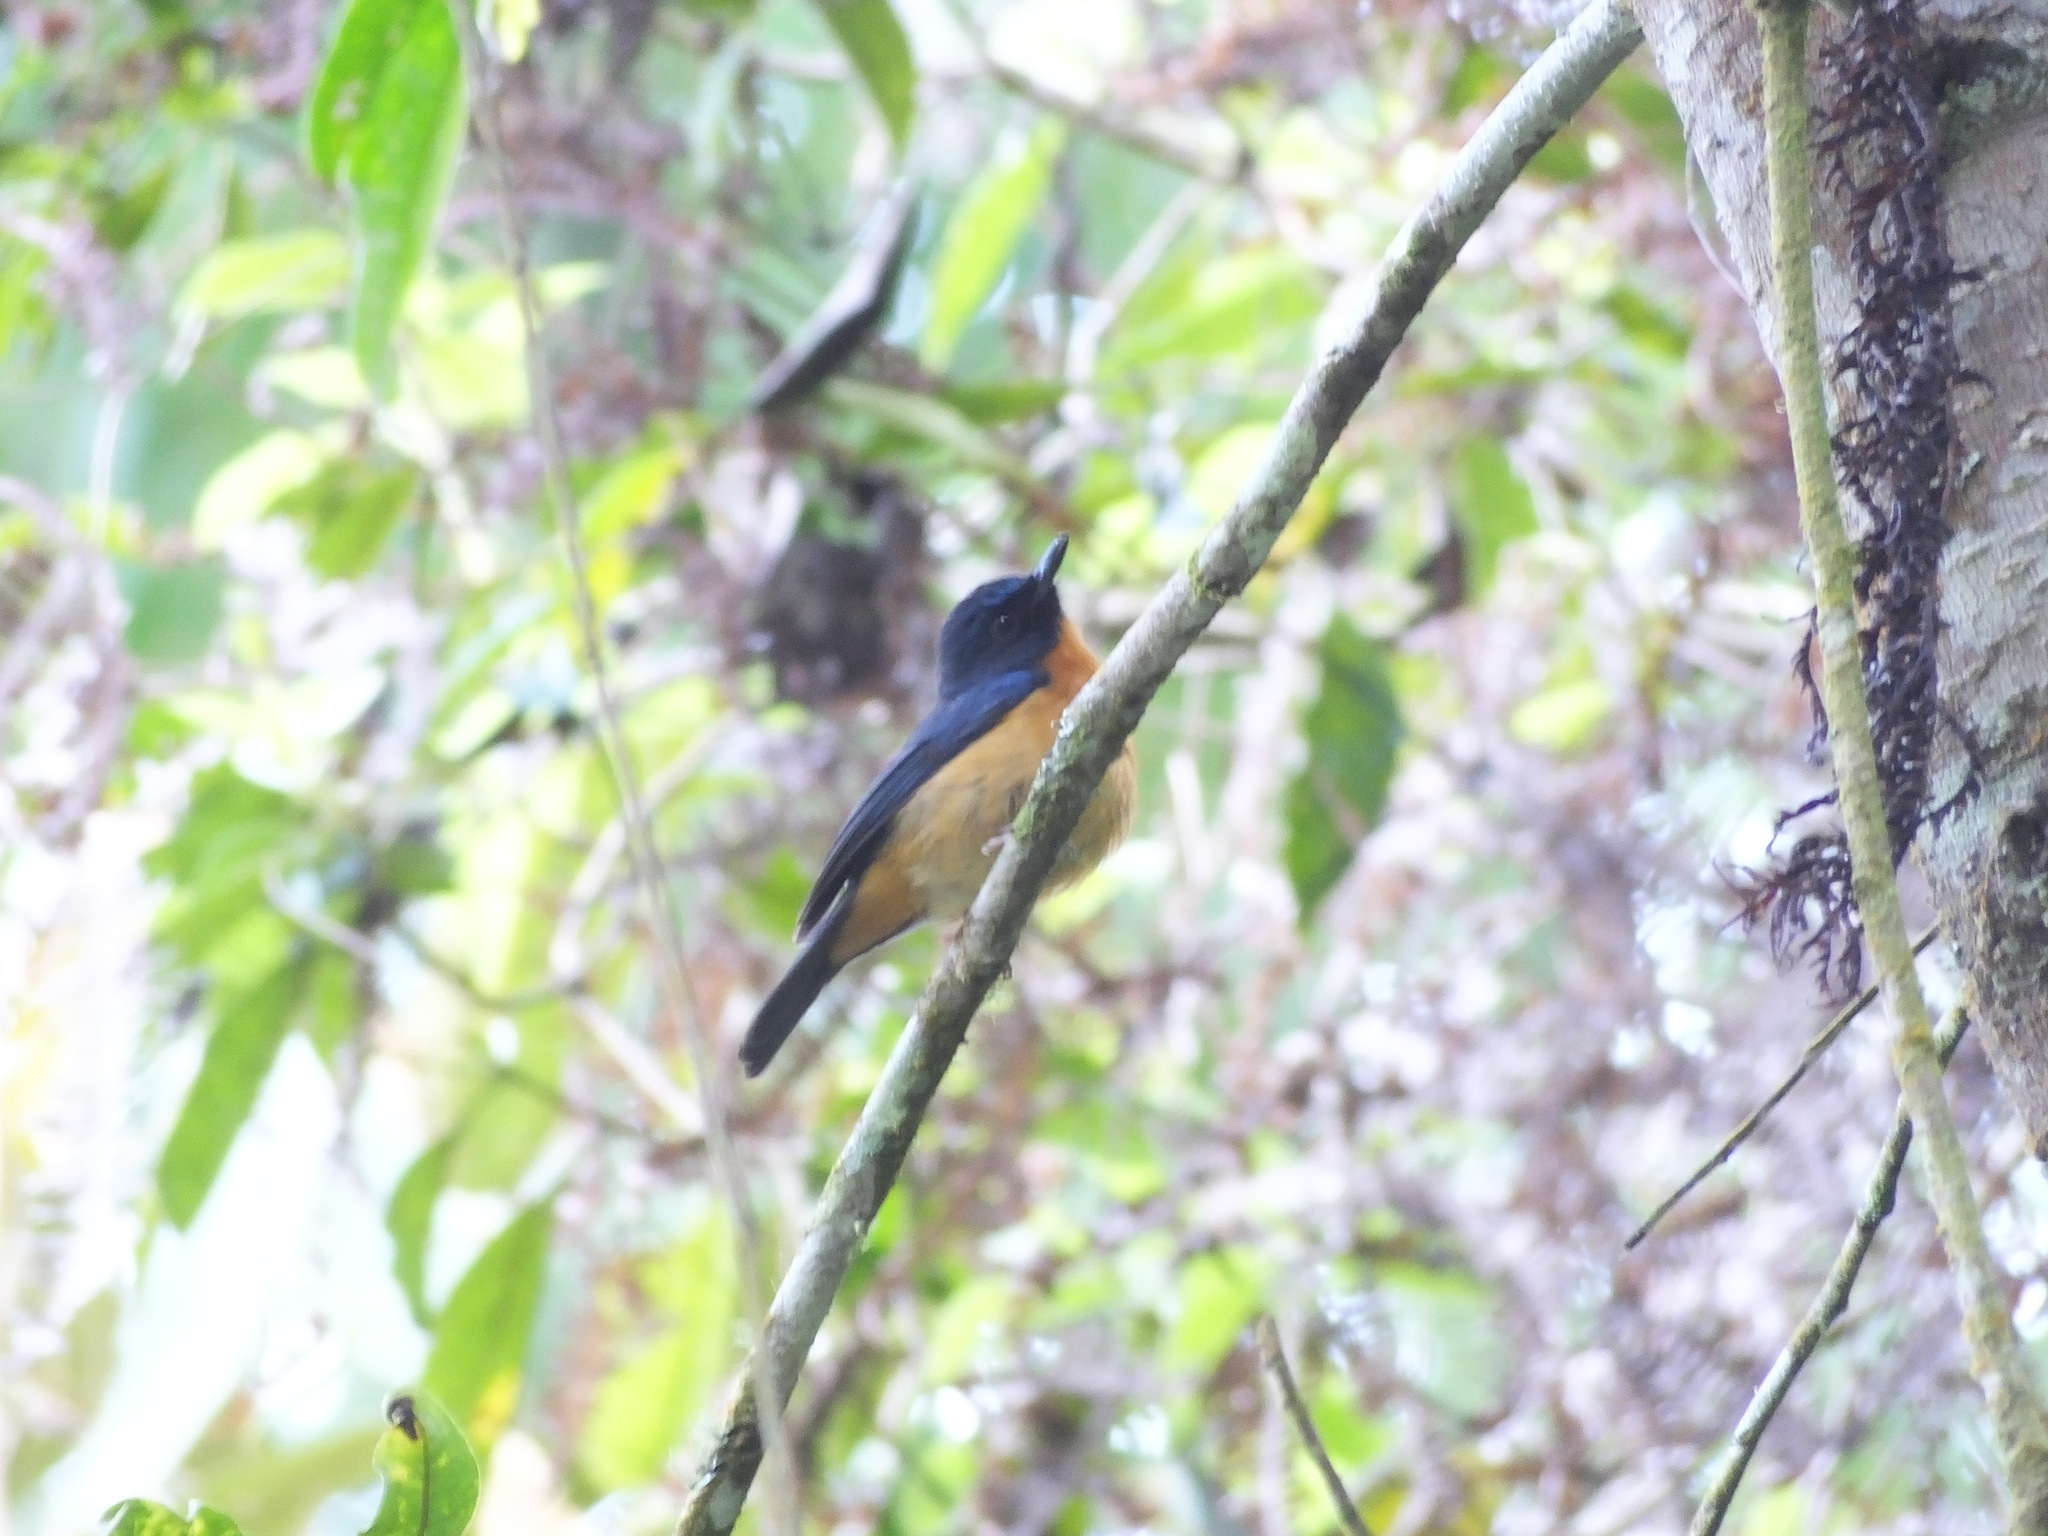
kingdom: Animalia
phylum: Chordata
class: Aves
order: Passeriformes
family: Muscicapidae
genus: Cyornis
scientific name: Cyornis omissus
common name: Sulawesi blue flycatcher
